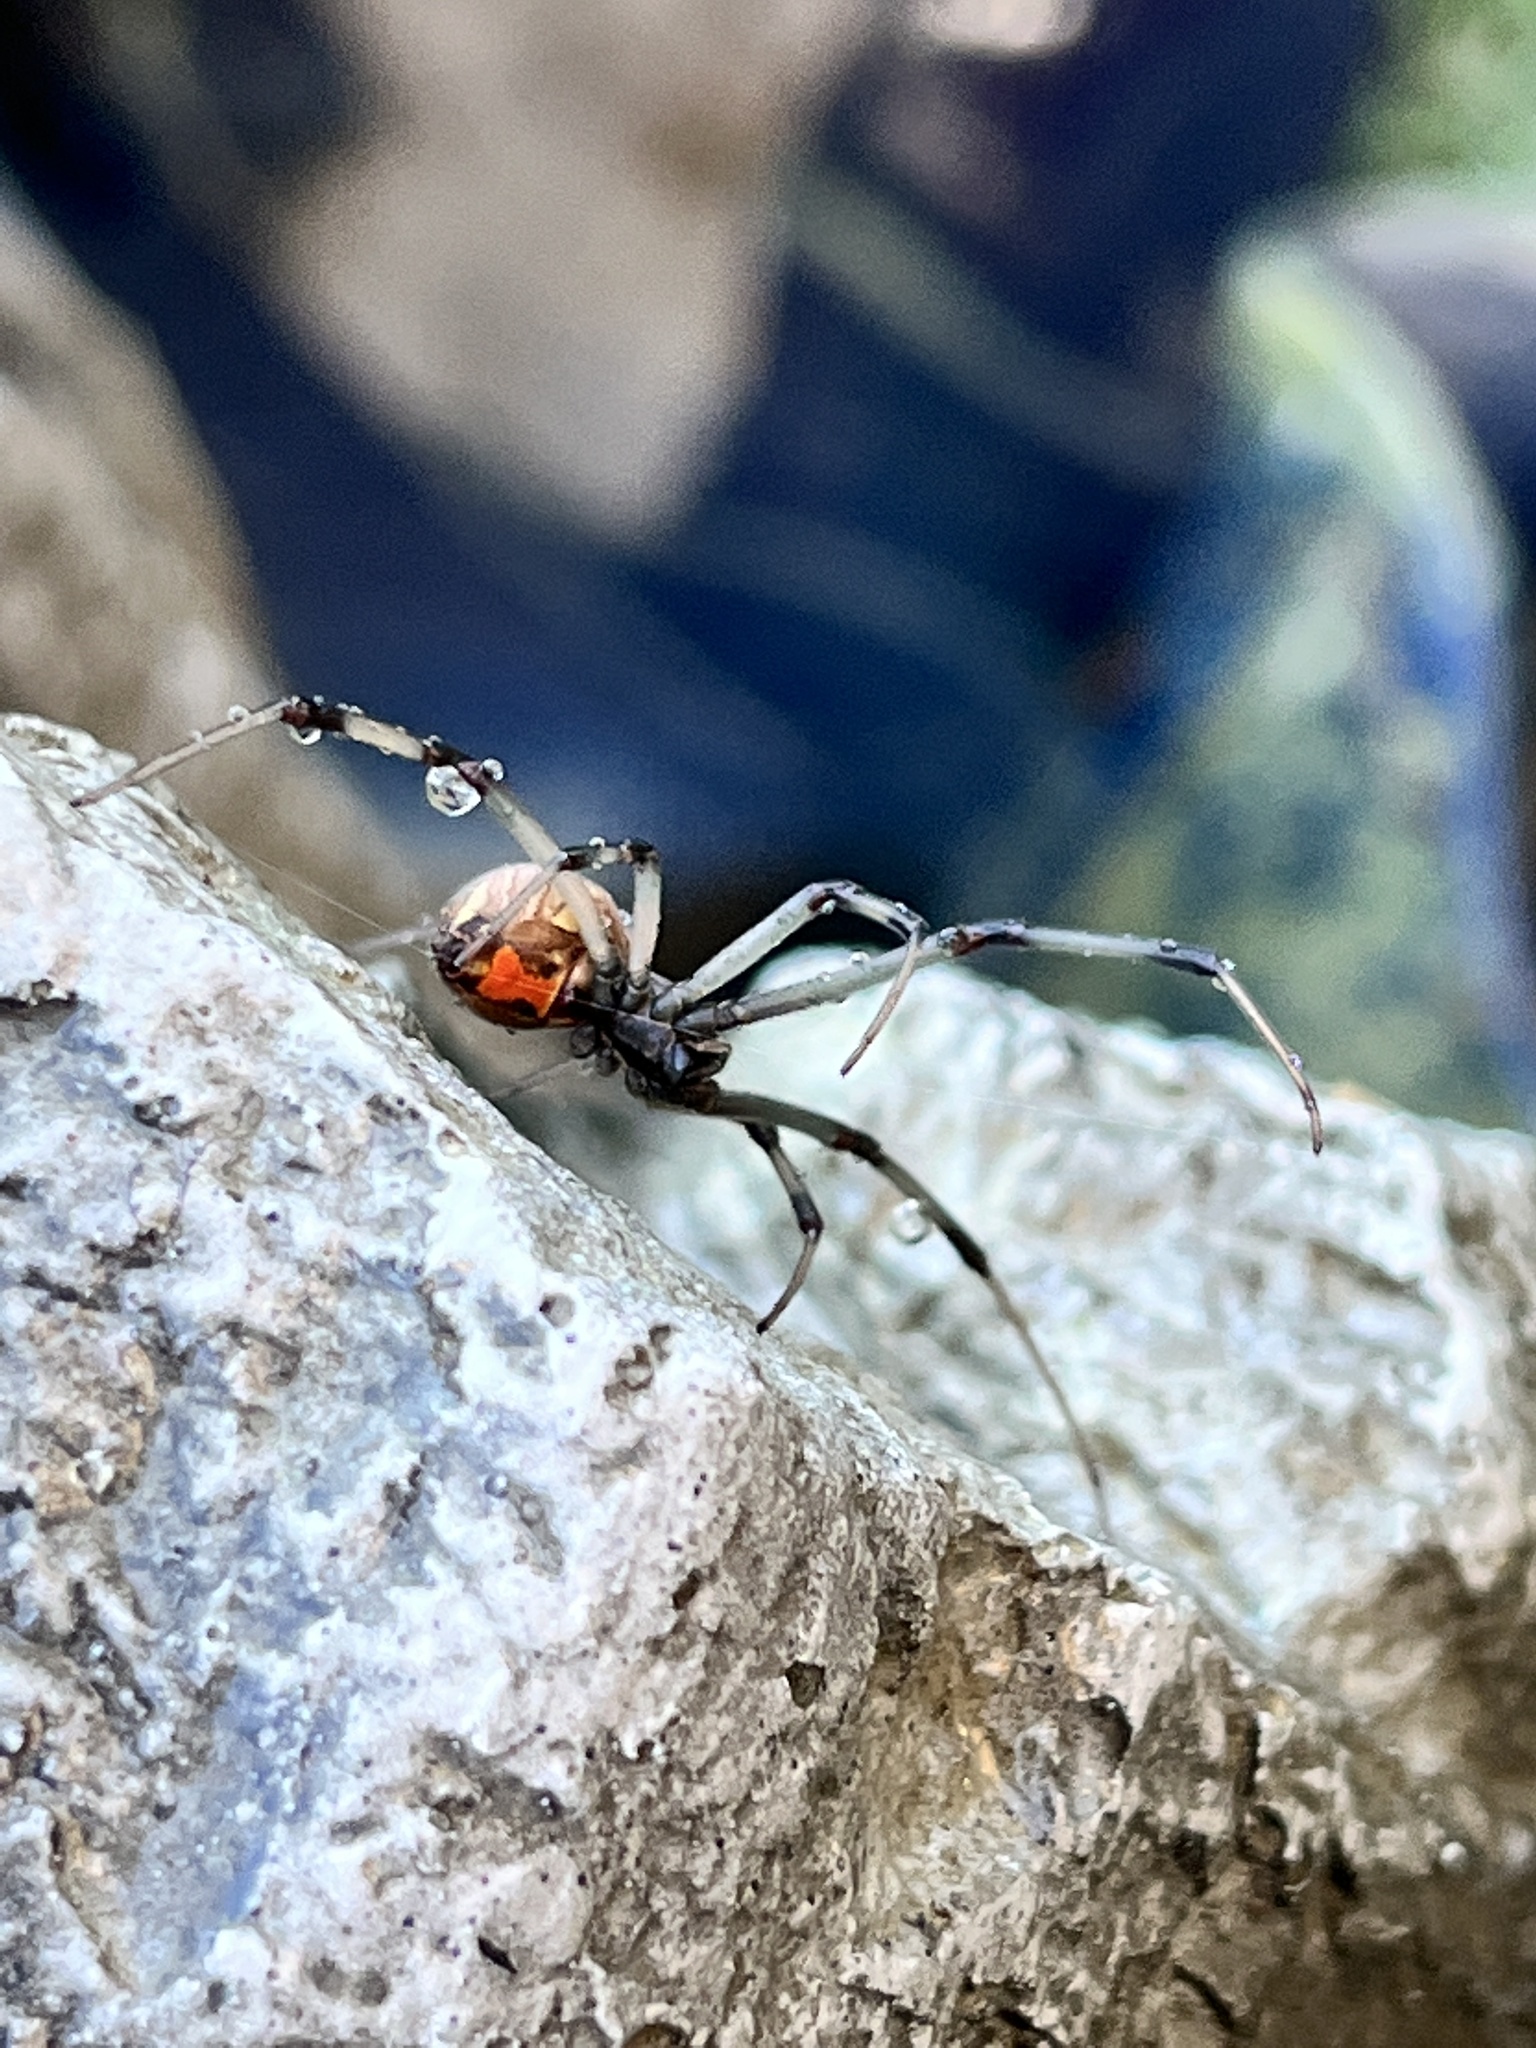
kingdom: Animalia
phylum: Arthropoda
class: Arachnida
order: Araneae
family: Theridiidae
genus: Latrodectus
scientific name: Latrodectus geometricus
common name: Brown widow spider
